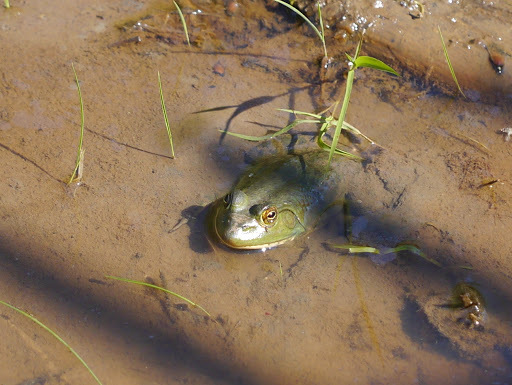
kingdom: Animalia
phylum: Chordata
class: Amphibia
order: Anura
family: Ranidae
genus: Lithobates
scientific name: Lithobates catesbeianus
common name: American bullfrog
